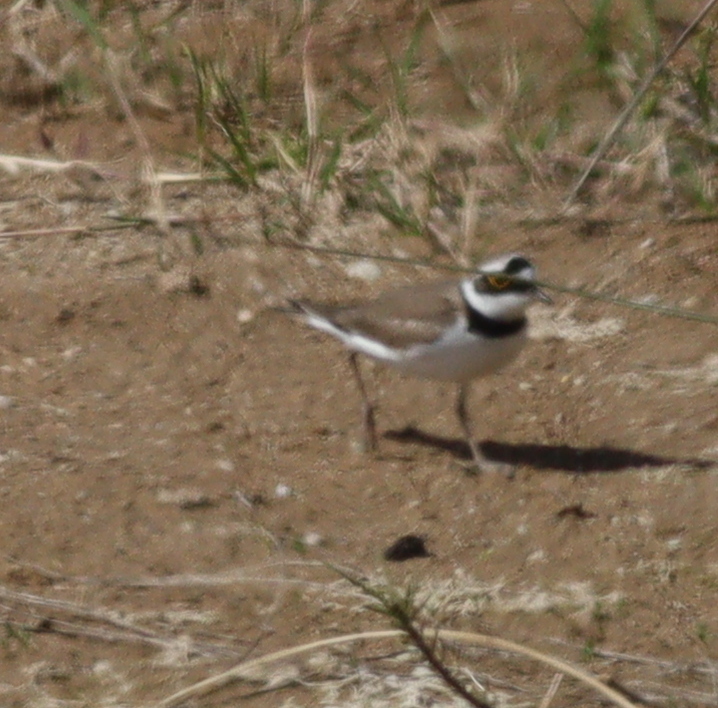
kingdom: Animalia
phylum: Chordata
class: Aves
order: Charadriiformes
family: Charadriidae
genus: Charadrius
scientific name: Charadrius dubius
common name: Little ringed plover
